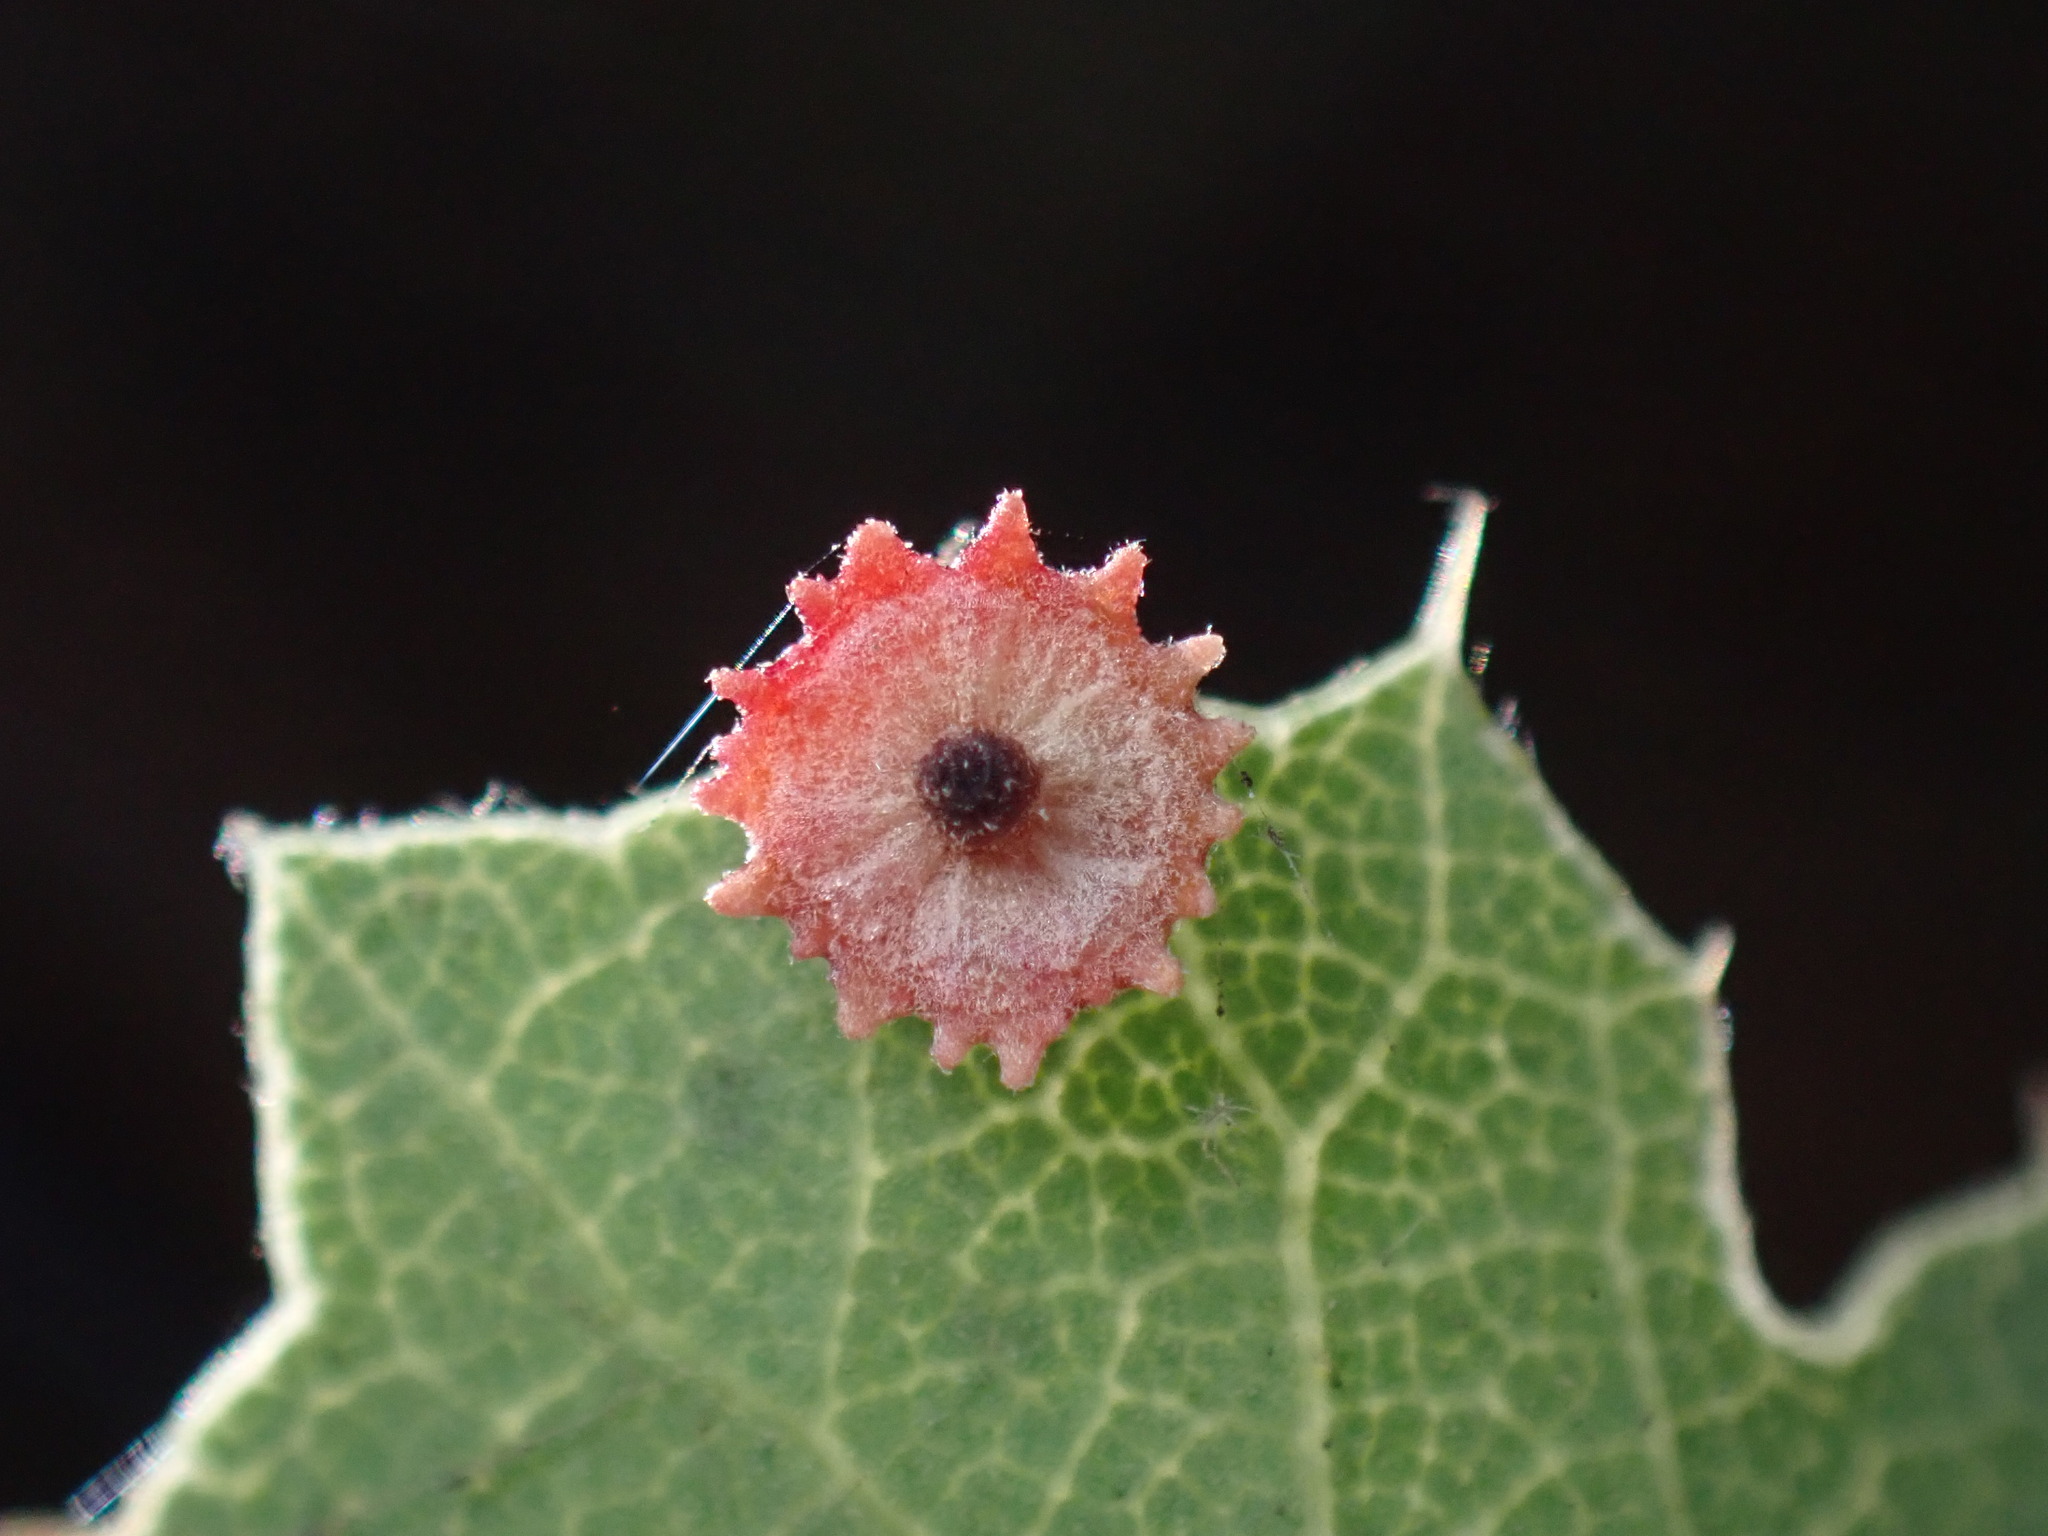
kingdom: Animalia
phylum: Arthropoda
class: Insecta
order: Hymenoptera
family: Cynipidae
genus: Andricus
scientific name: Andricus
